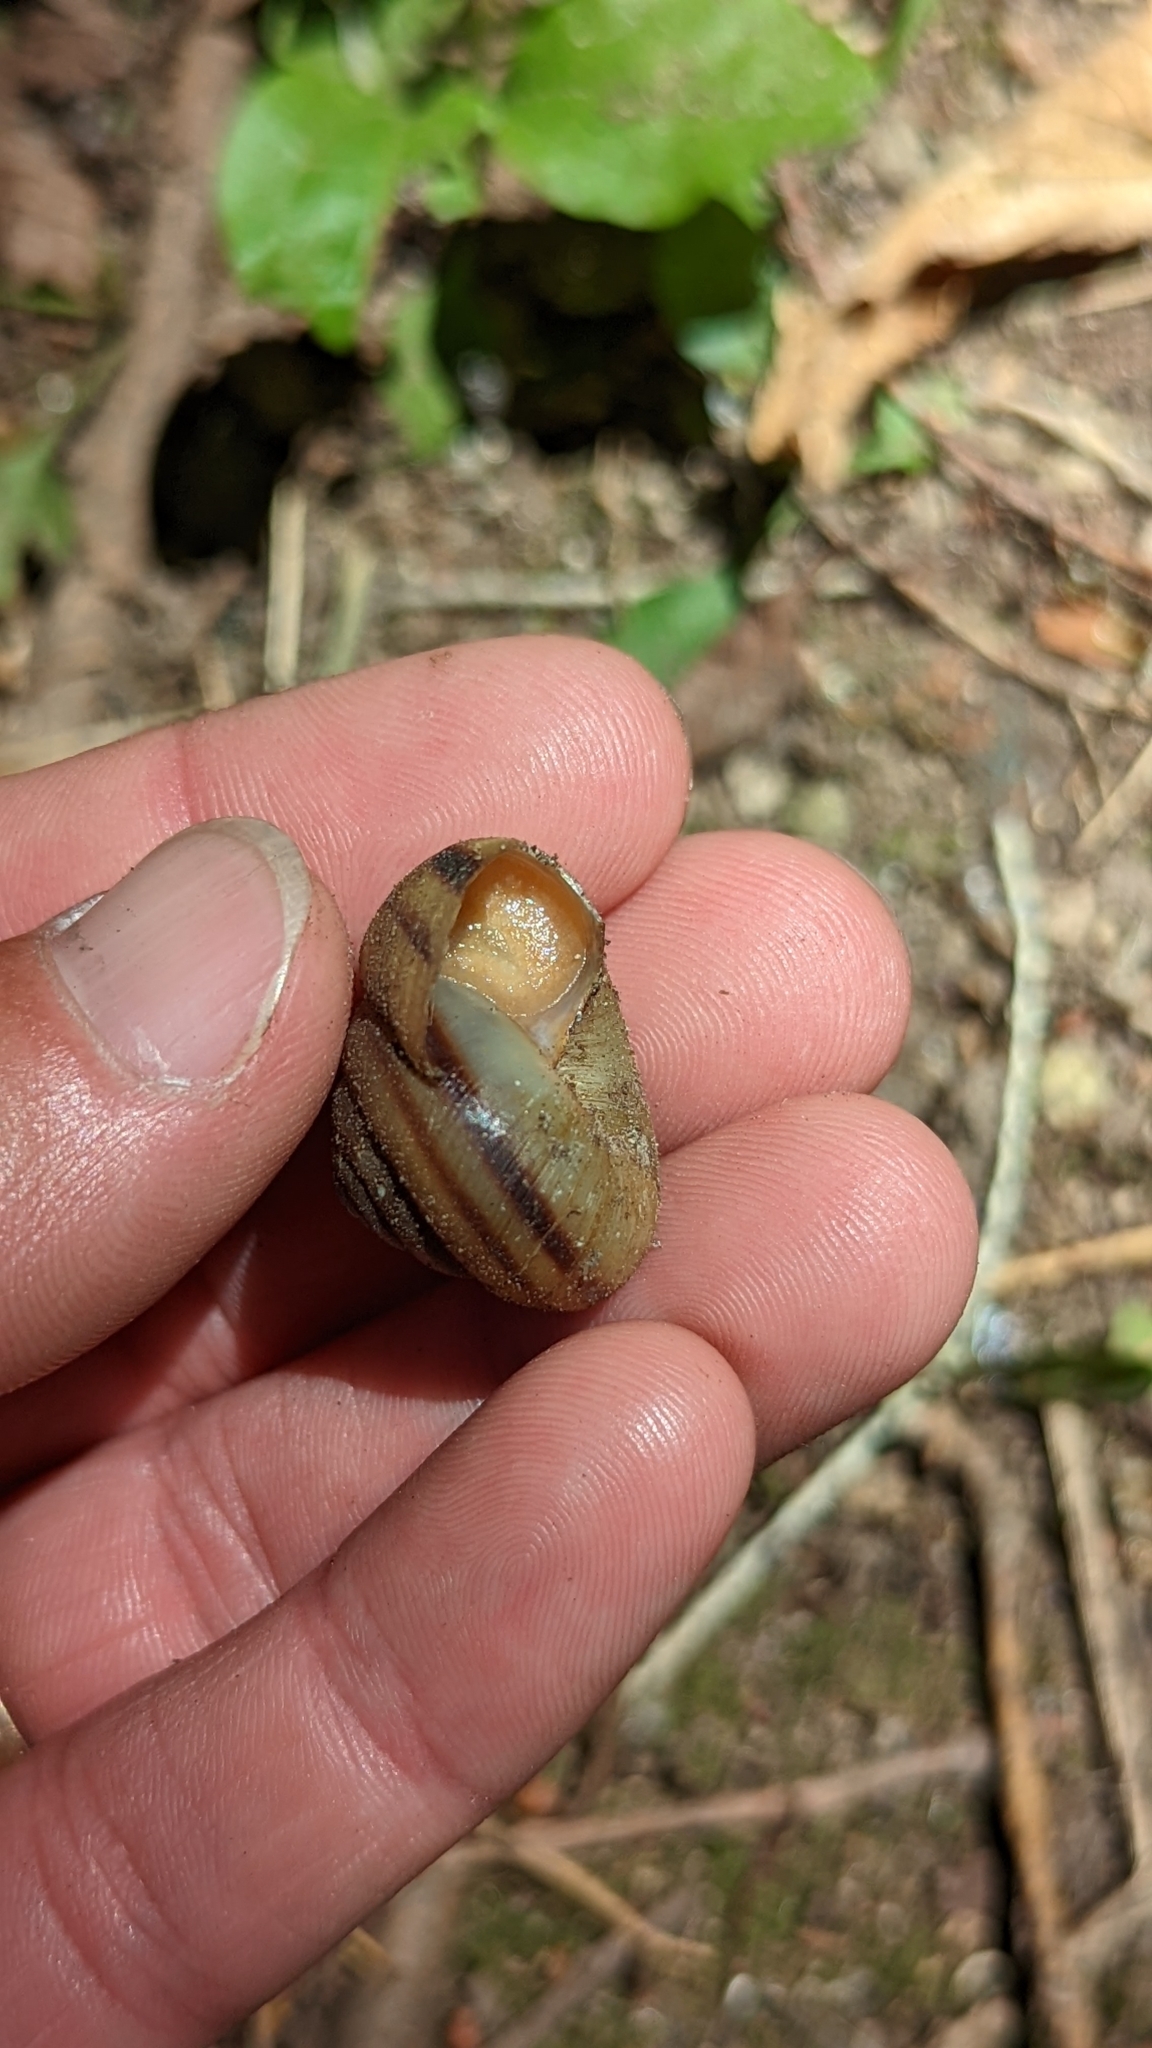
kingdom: Animalia
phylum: Mollusca
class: Gastropoda
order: Stylommatophora
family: Polygyridae
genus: Allogona
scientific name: Allogona profunda
